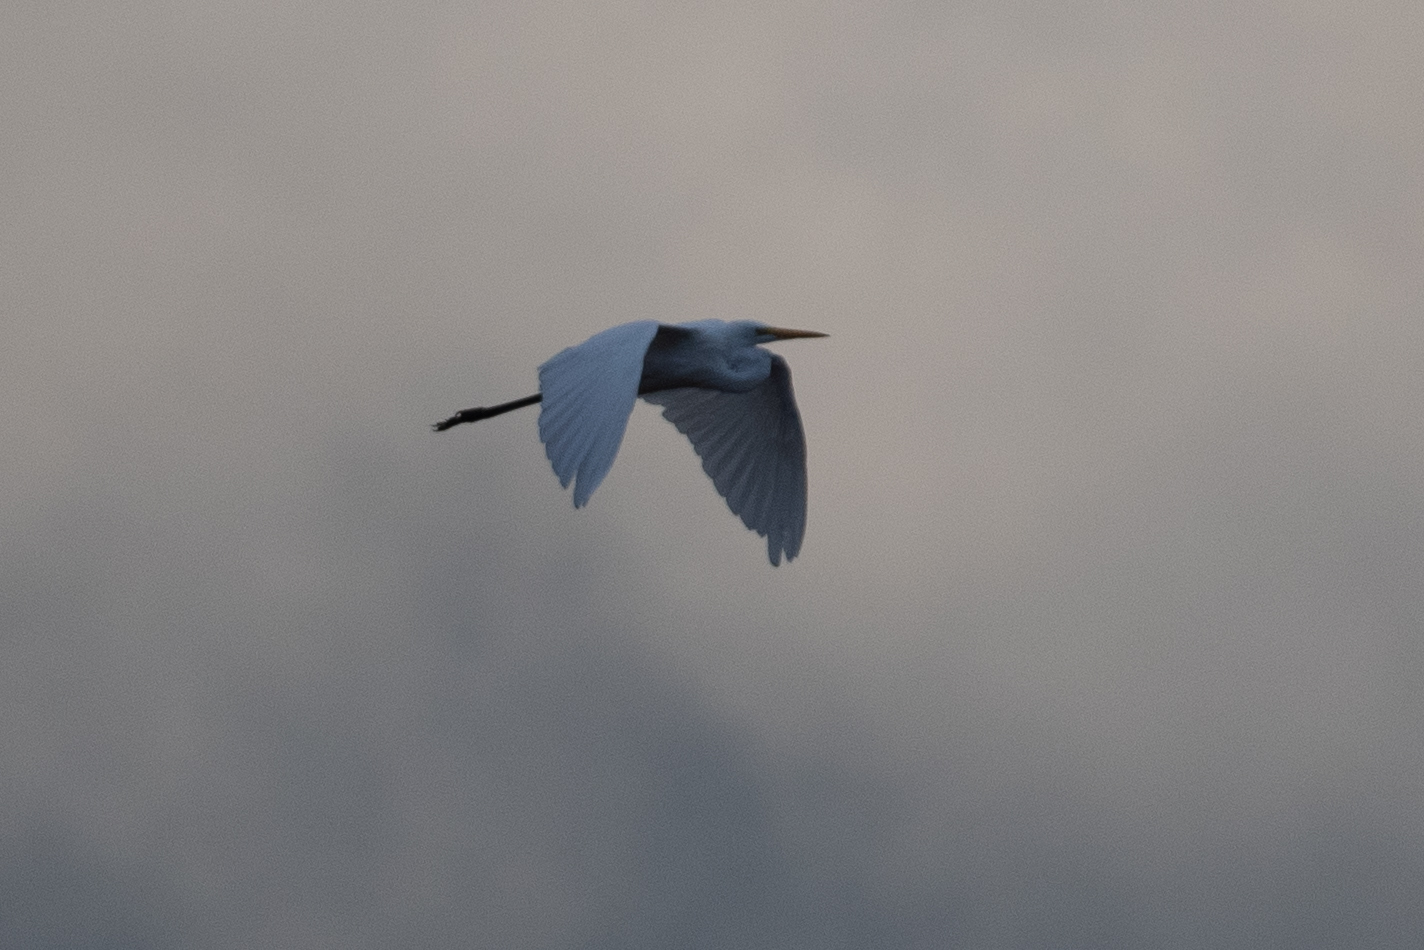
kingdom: Animalia
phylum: Chordata
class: Aves
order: Pelecaniformes
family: Ardeidae
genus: Ardea
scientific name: Ardea alba
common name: Great egret
